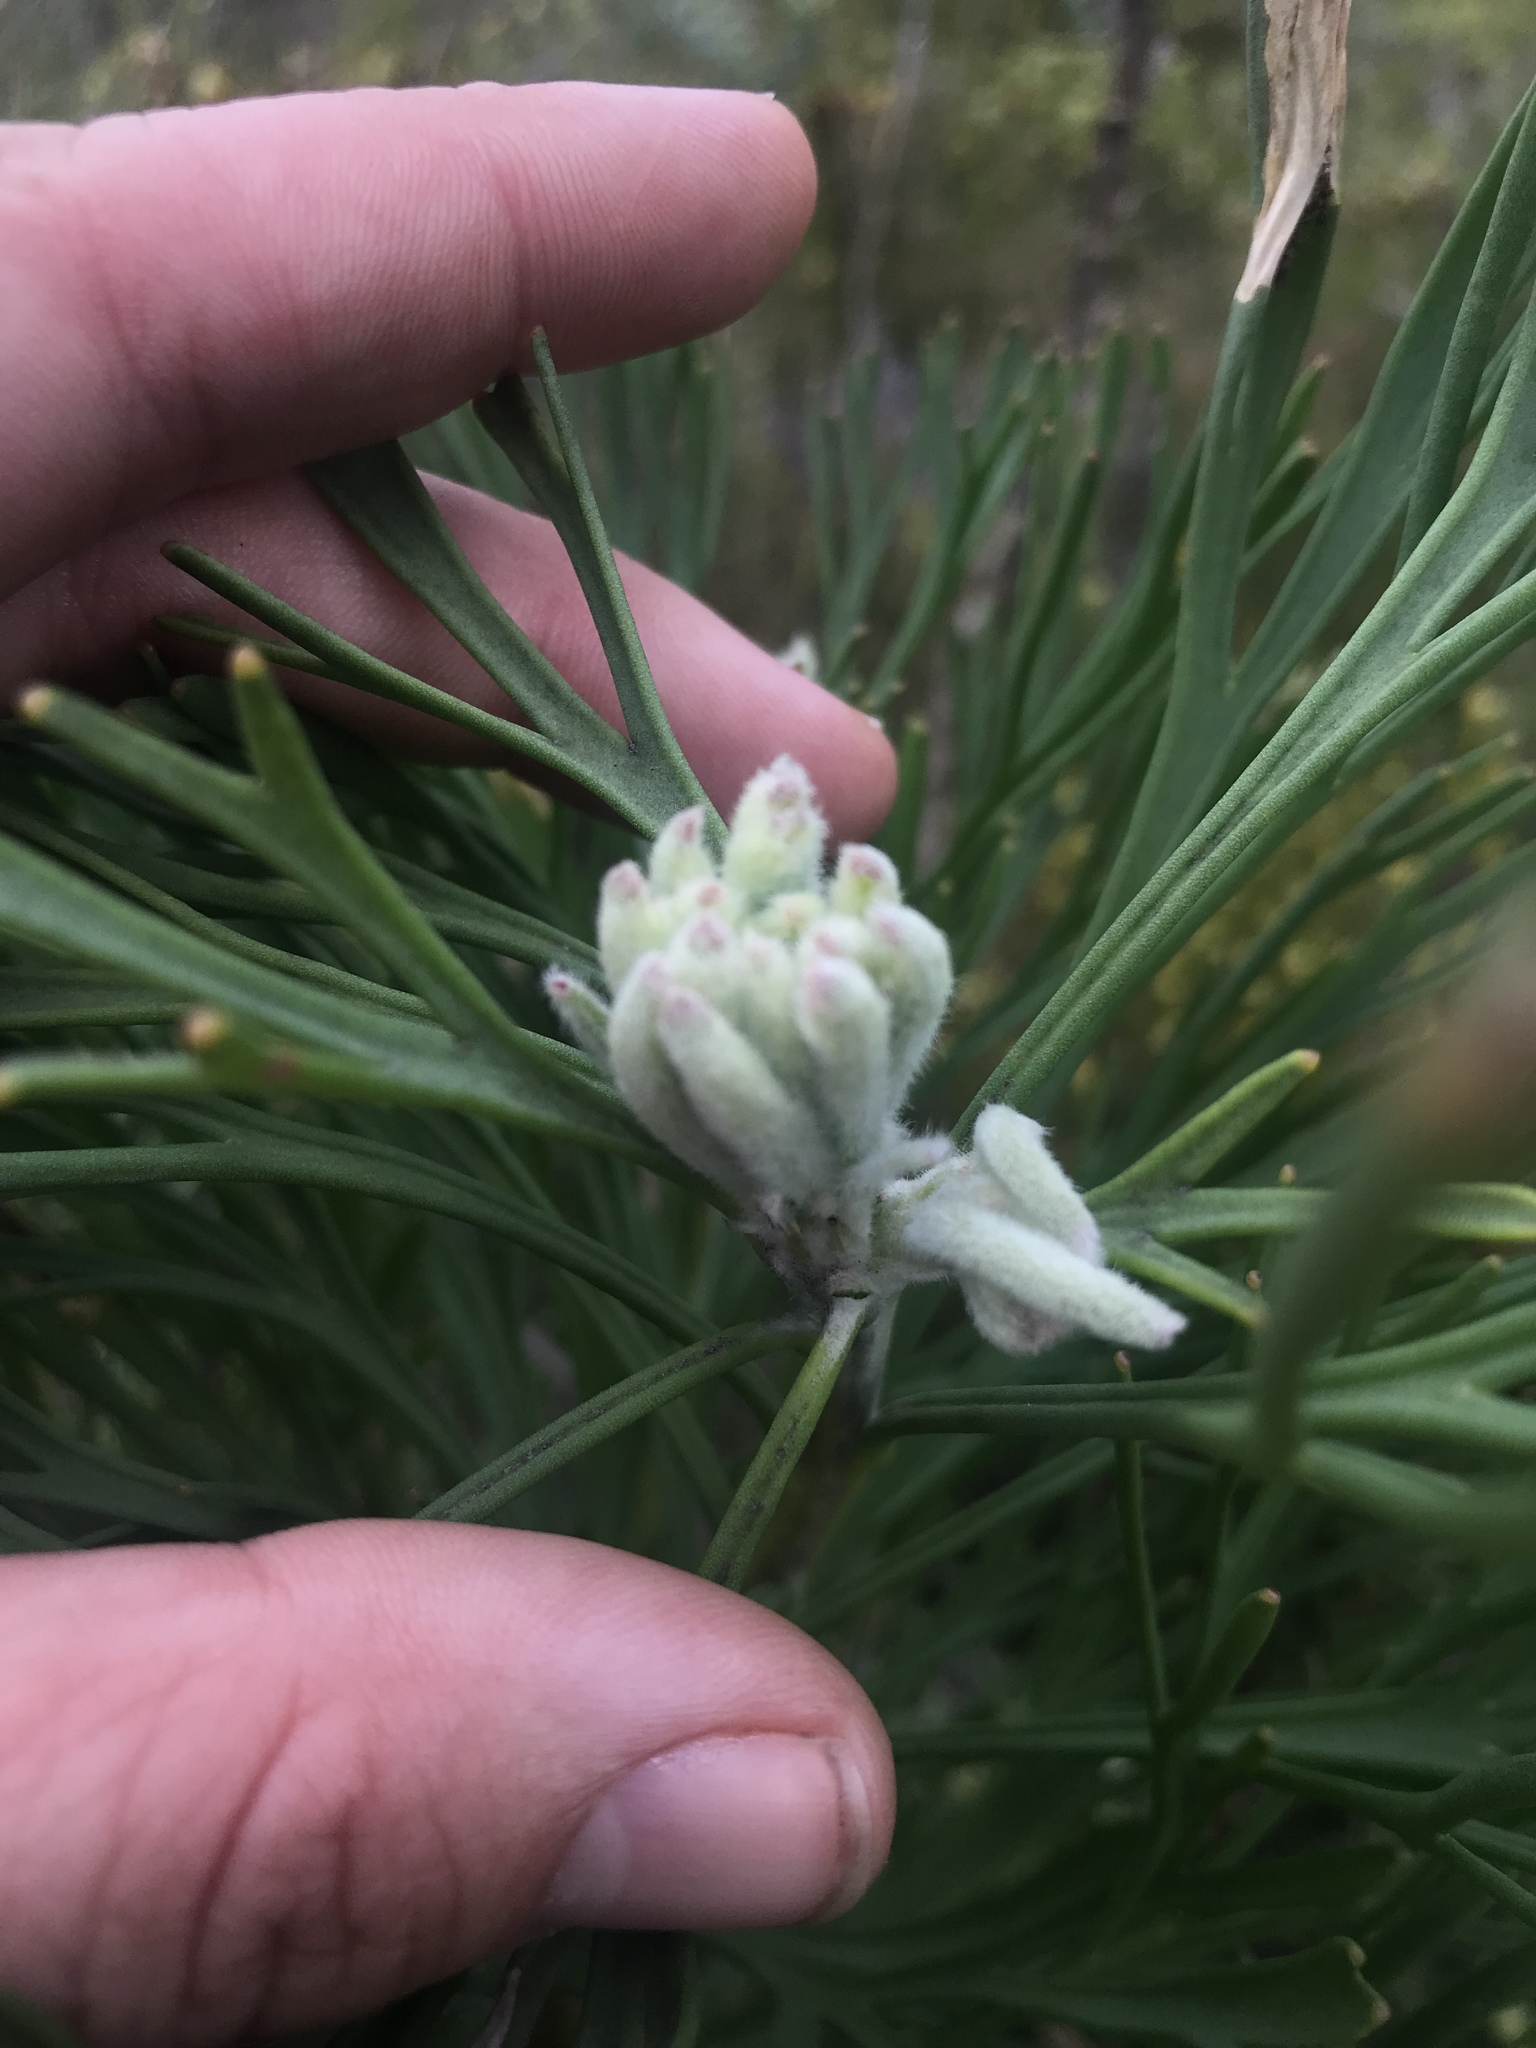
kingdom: Plantae
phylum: Tracheophyta
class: Magnoliopsida
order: Proteales
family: Proteaceae
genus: Paranomus
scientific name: Paranomus sceptrum-gustavianus
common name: King gustav's sceptre
